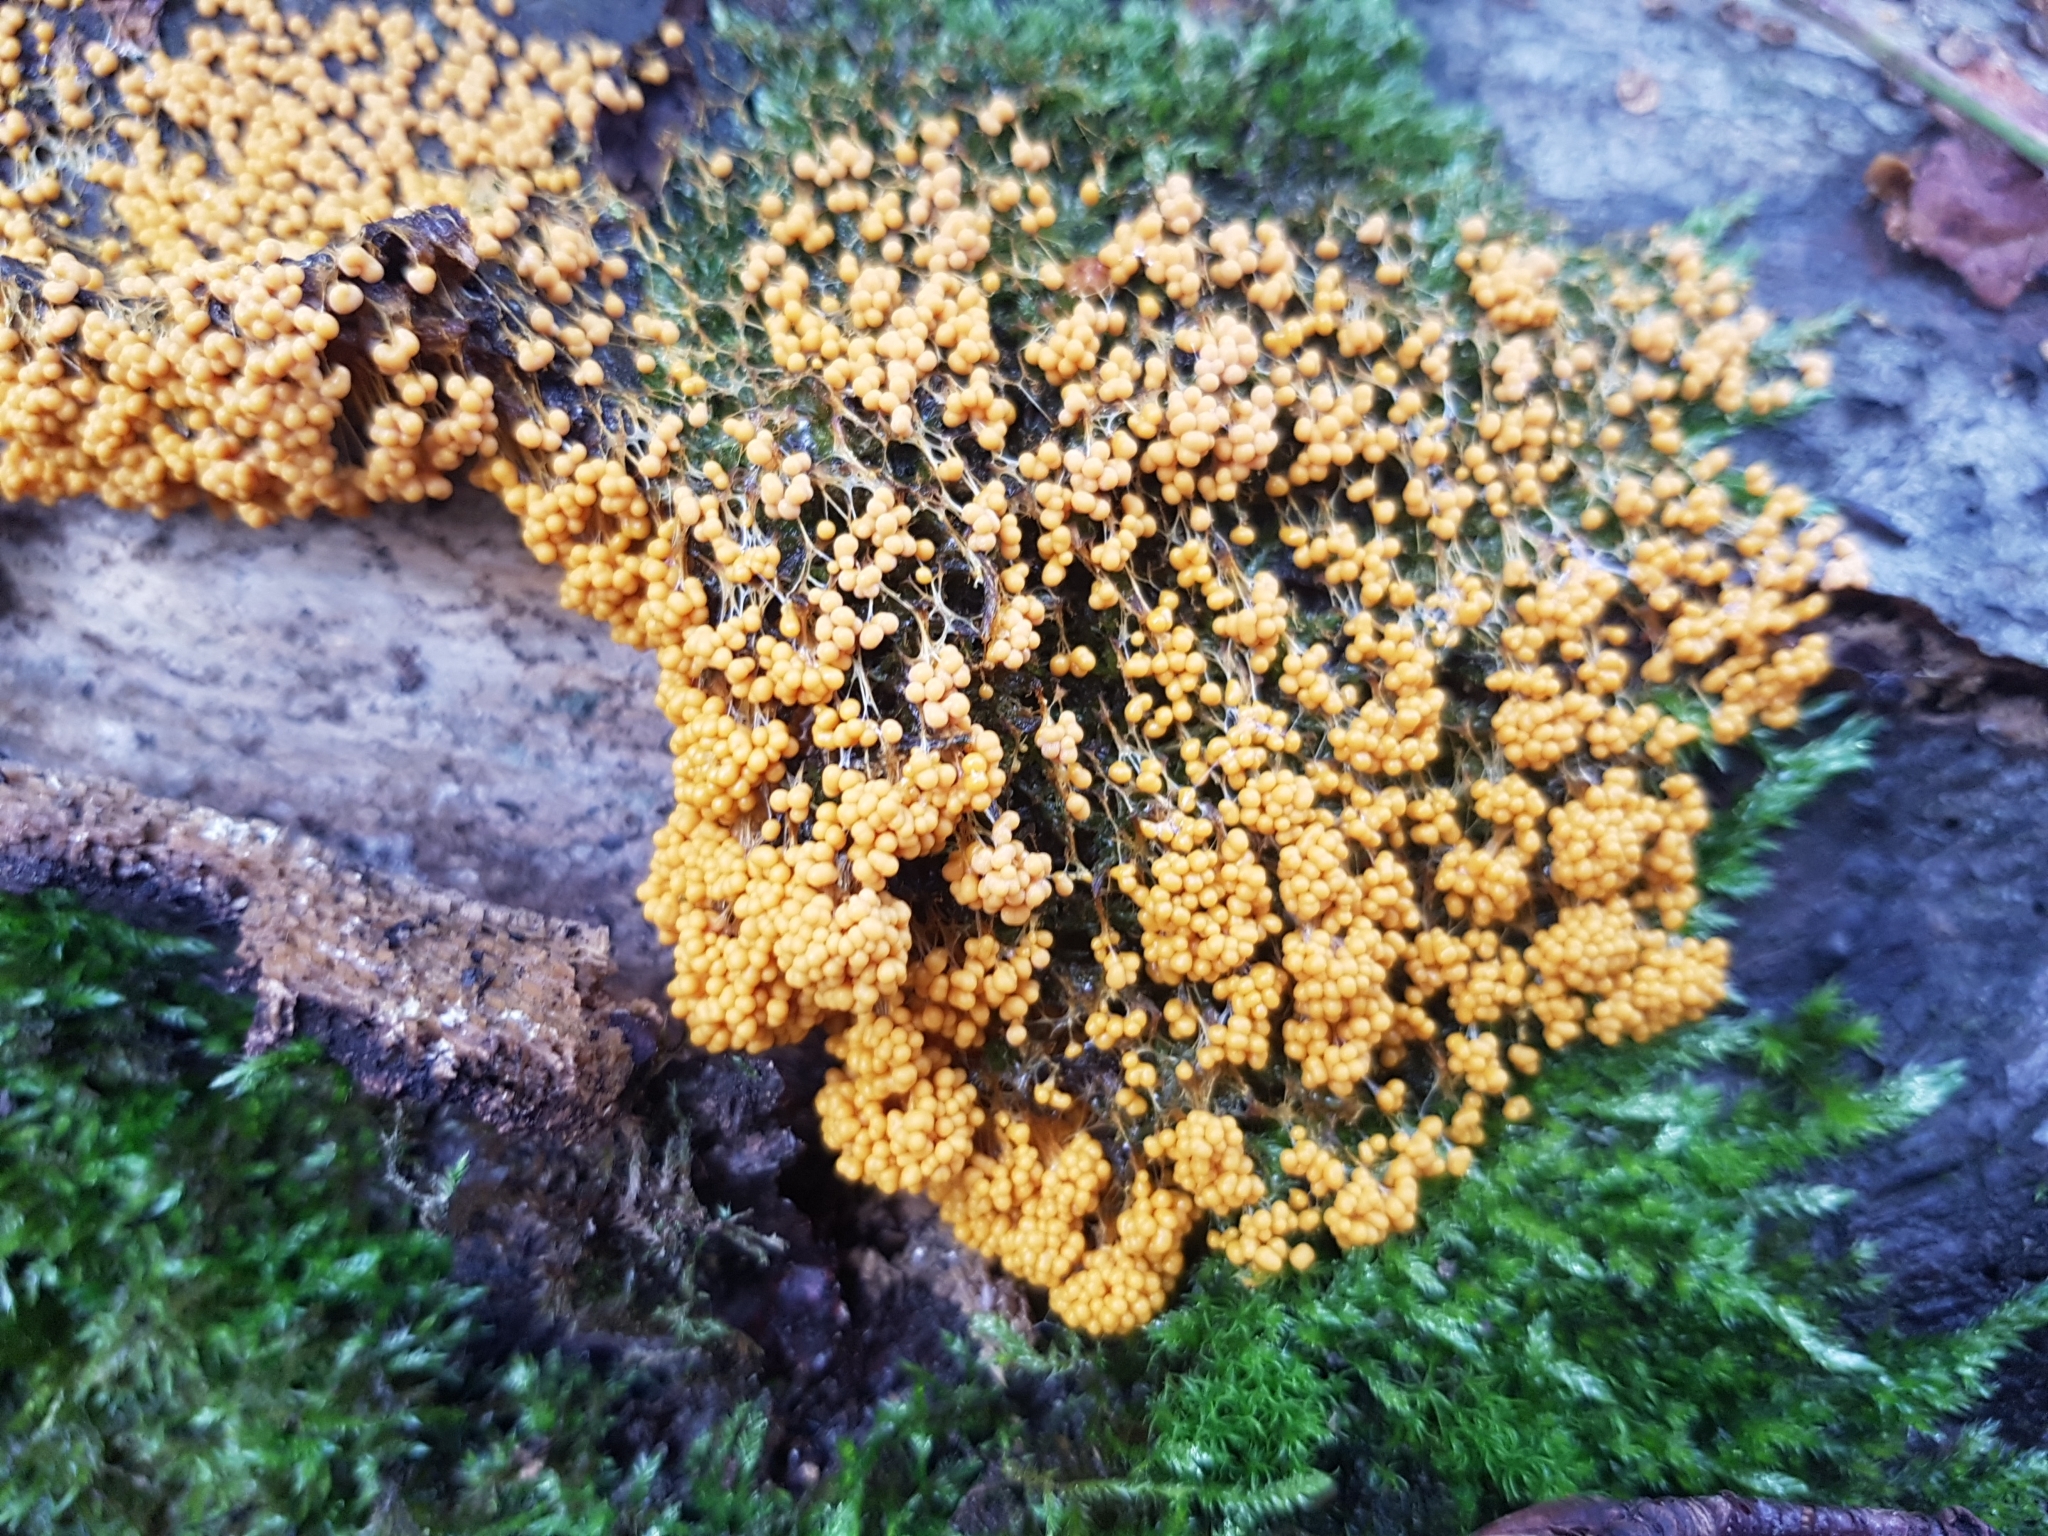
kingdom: Protozoa
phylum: Mycetozoa
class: Myxomycetes
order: Physarales
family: Physaraceae
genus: Badhamia
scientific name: Badhamia utricularis
